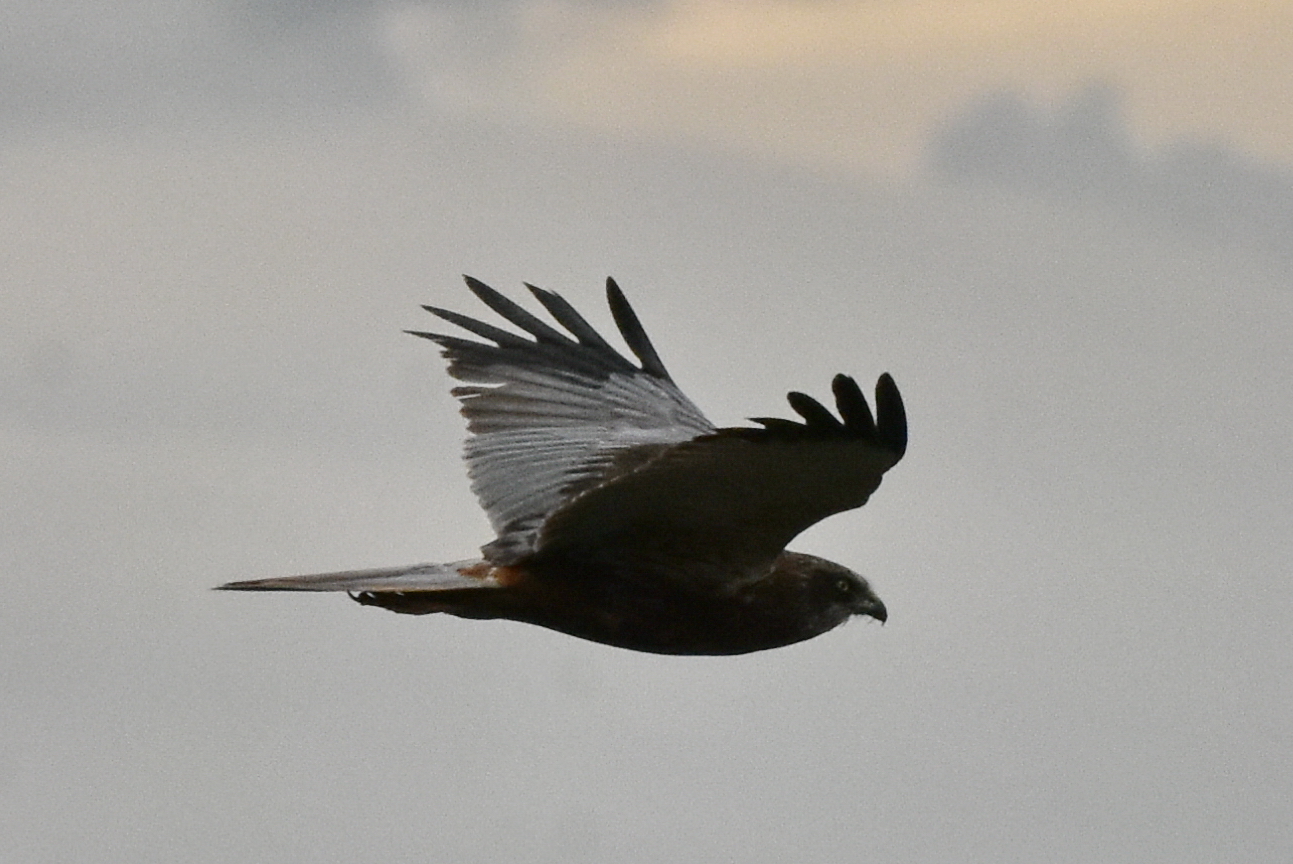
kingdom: Animalia
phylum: Chordata
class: Aves
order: Accipitriformes
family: Accipitridae
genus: Circus
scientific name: Circus aeruginosus
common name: Western marsh harrier
